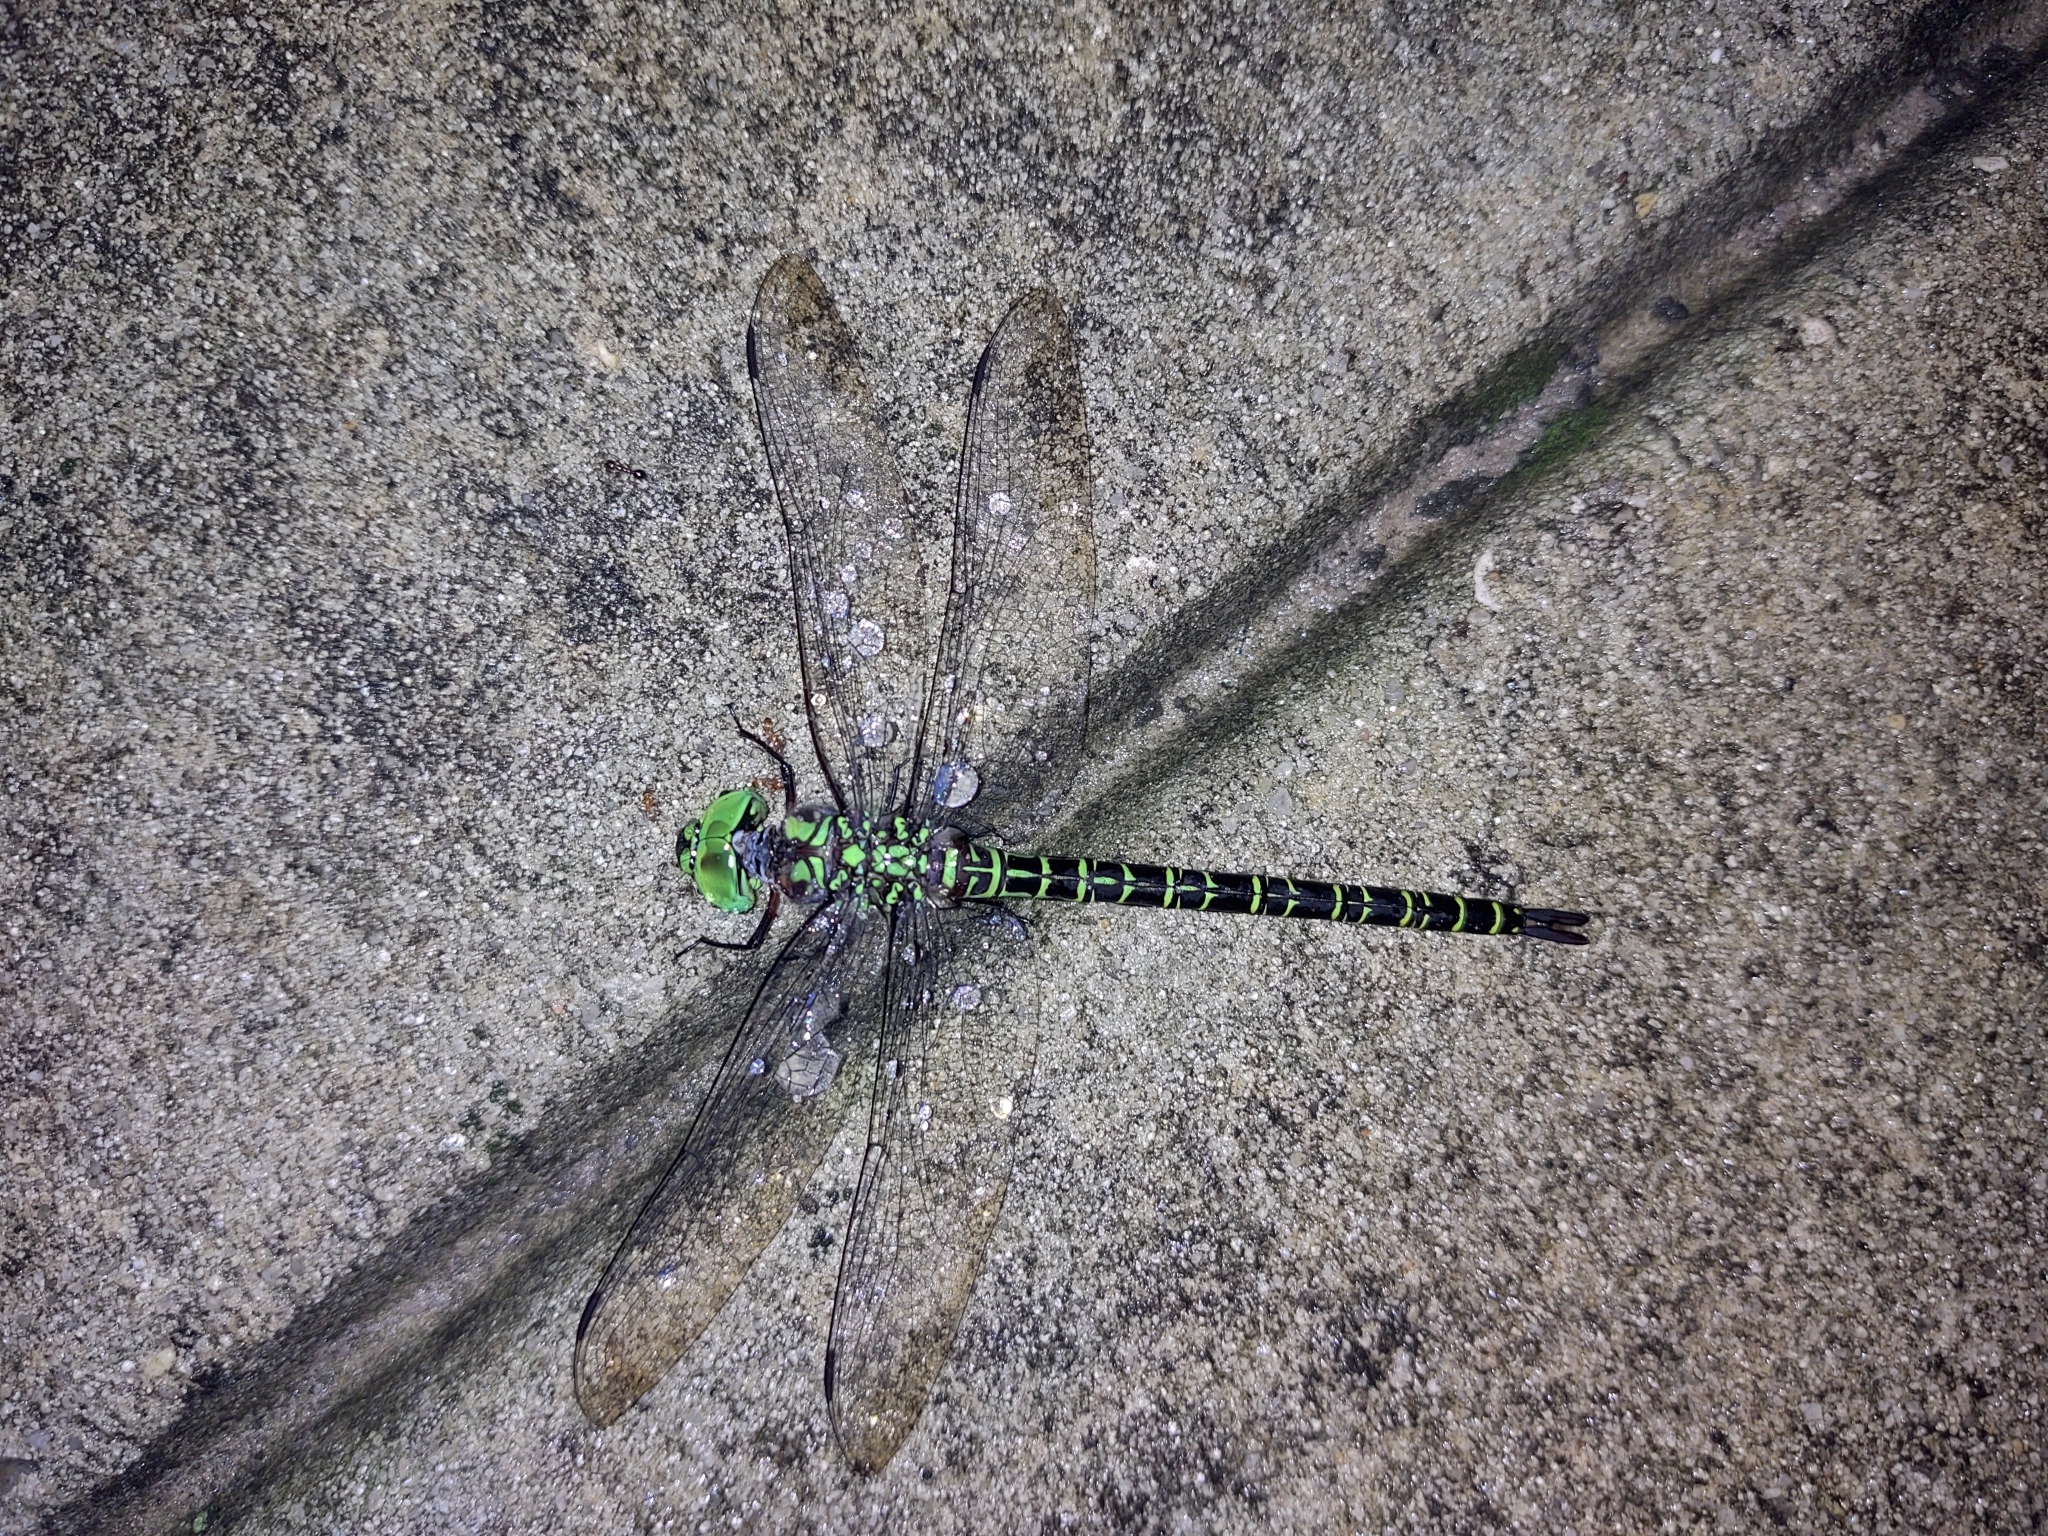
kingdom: Animalia
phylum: Arthropoda
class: Insecta
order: Odonata
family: Aeshnidae
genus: Coryphaeschna
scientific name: Coryphaeschna ingens
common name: Regal darner
